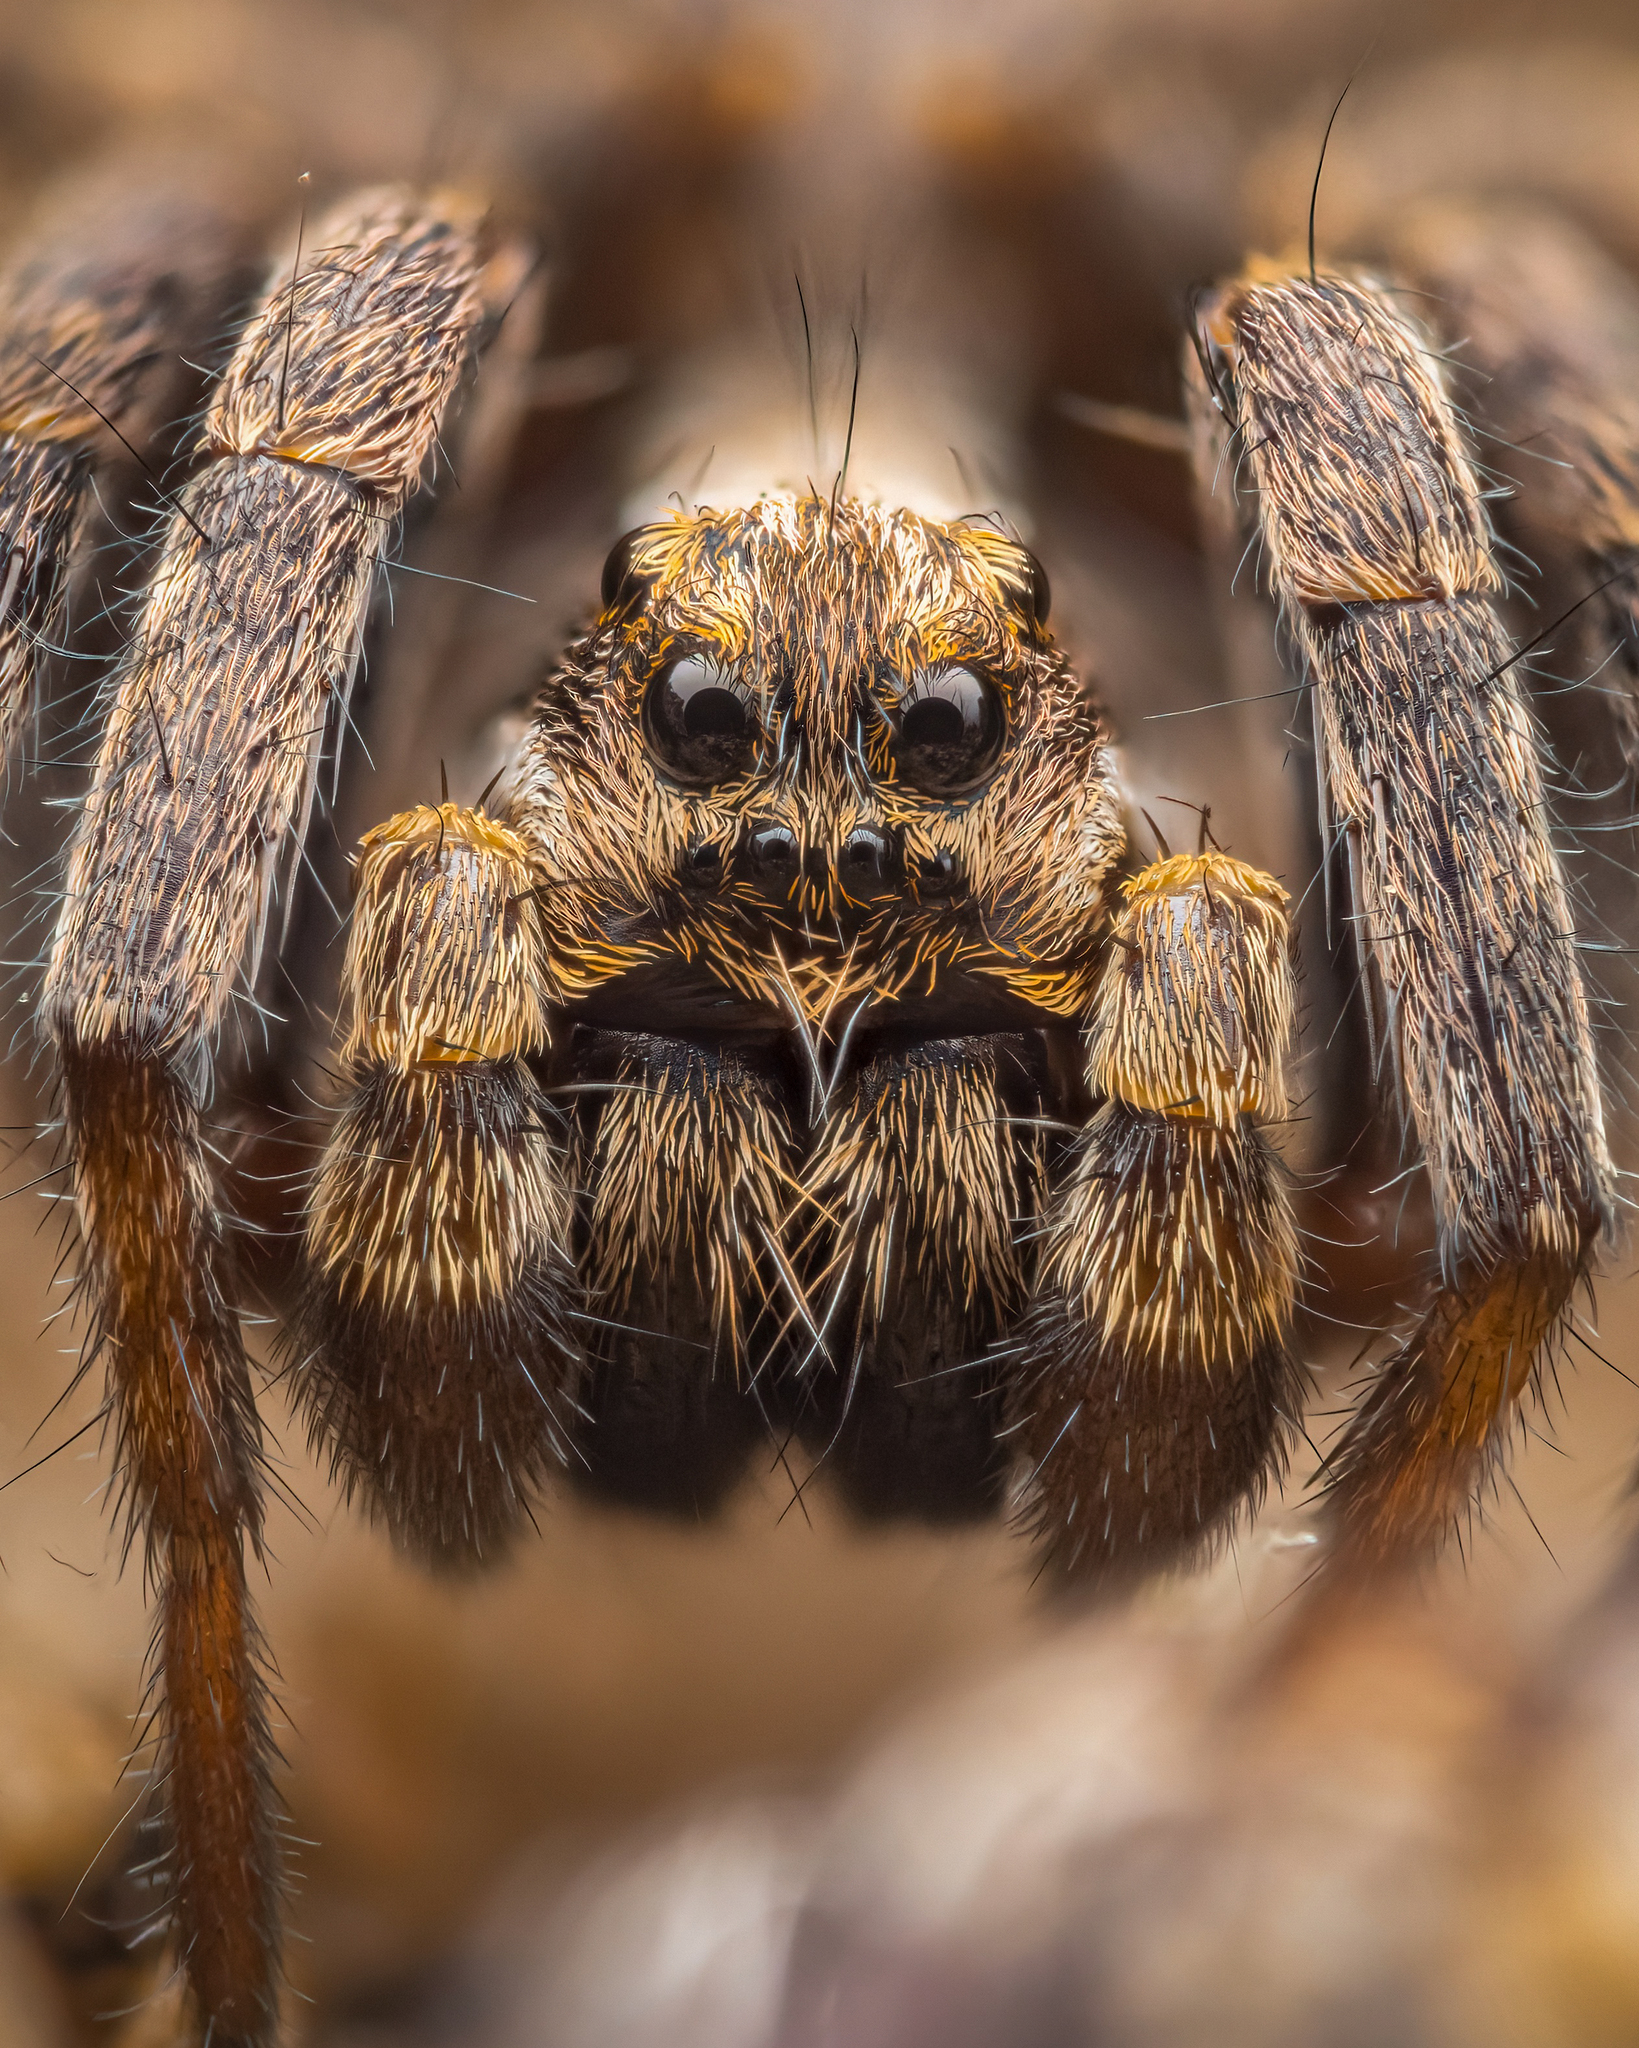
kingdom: Animalia
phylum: Arthropoda
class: Arachnida
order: Araneae
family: Lycosidae
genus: Alopecosa
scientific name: Alopecosa barbipes
